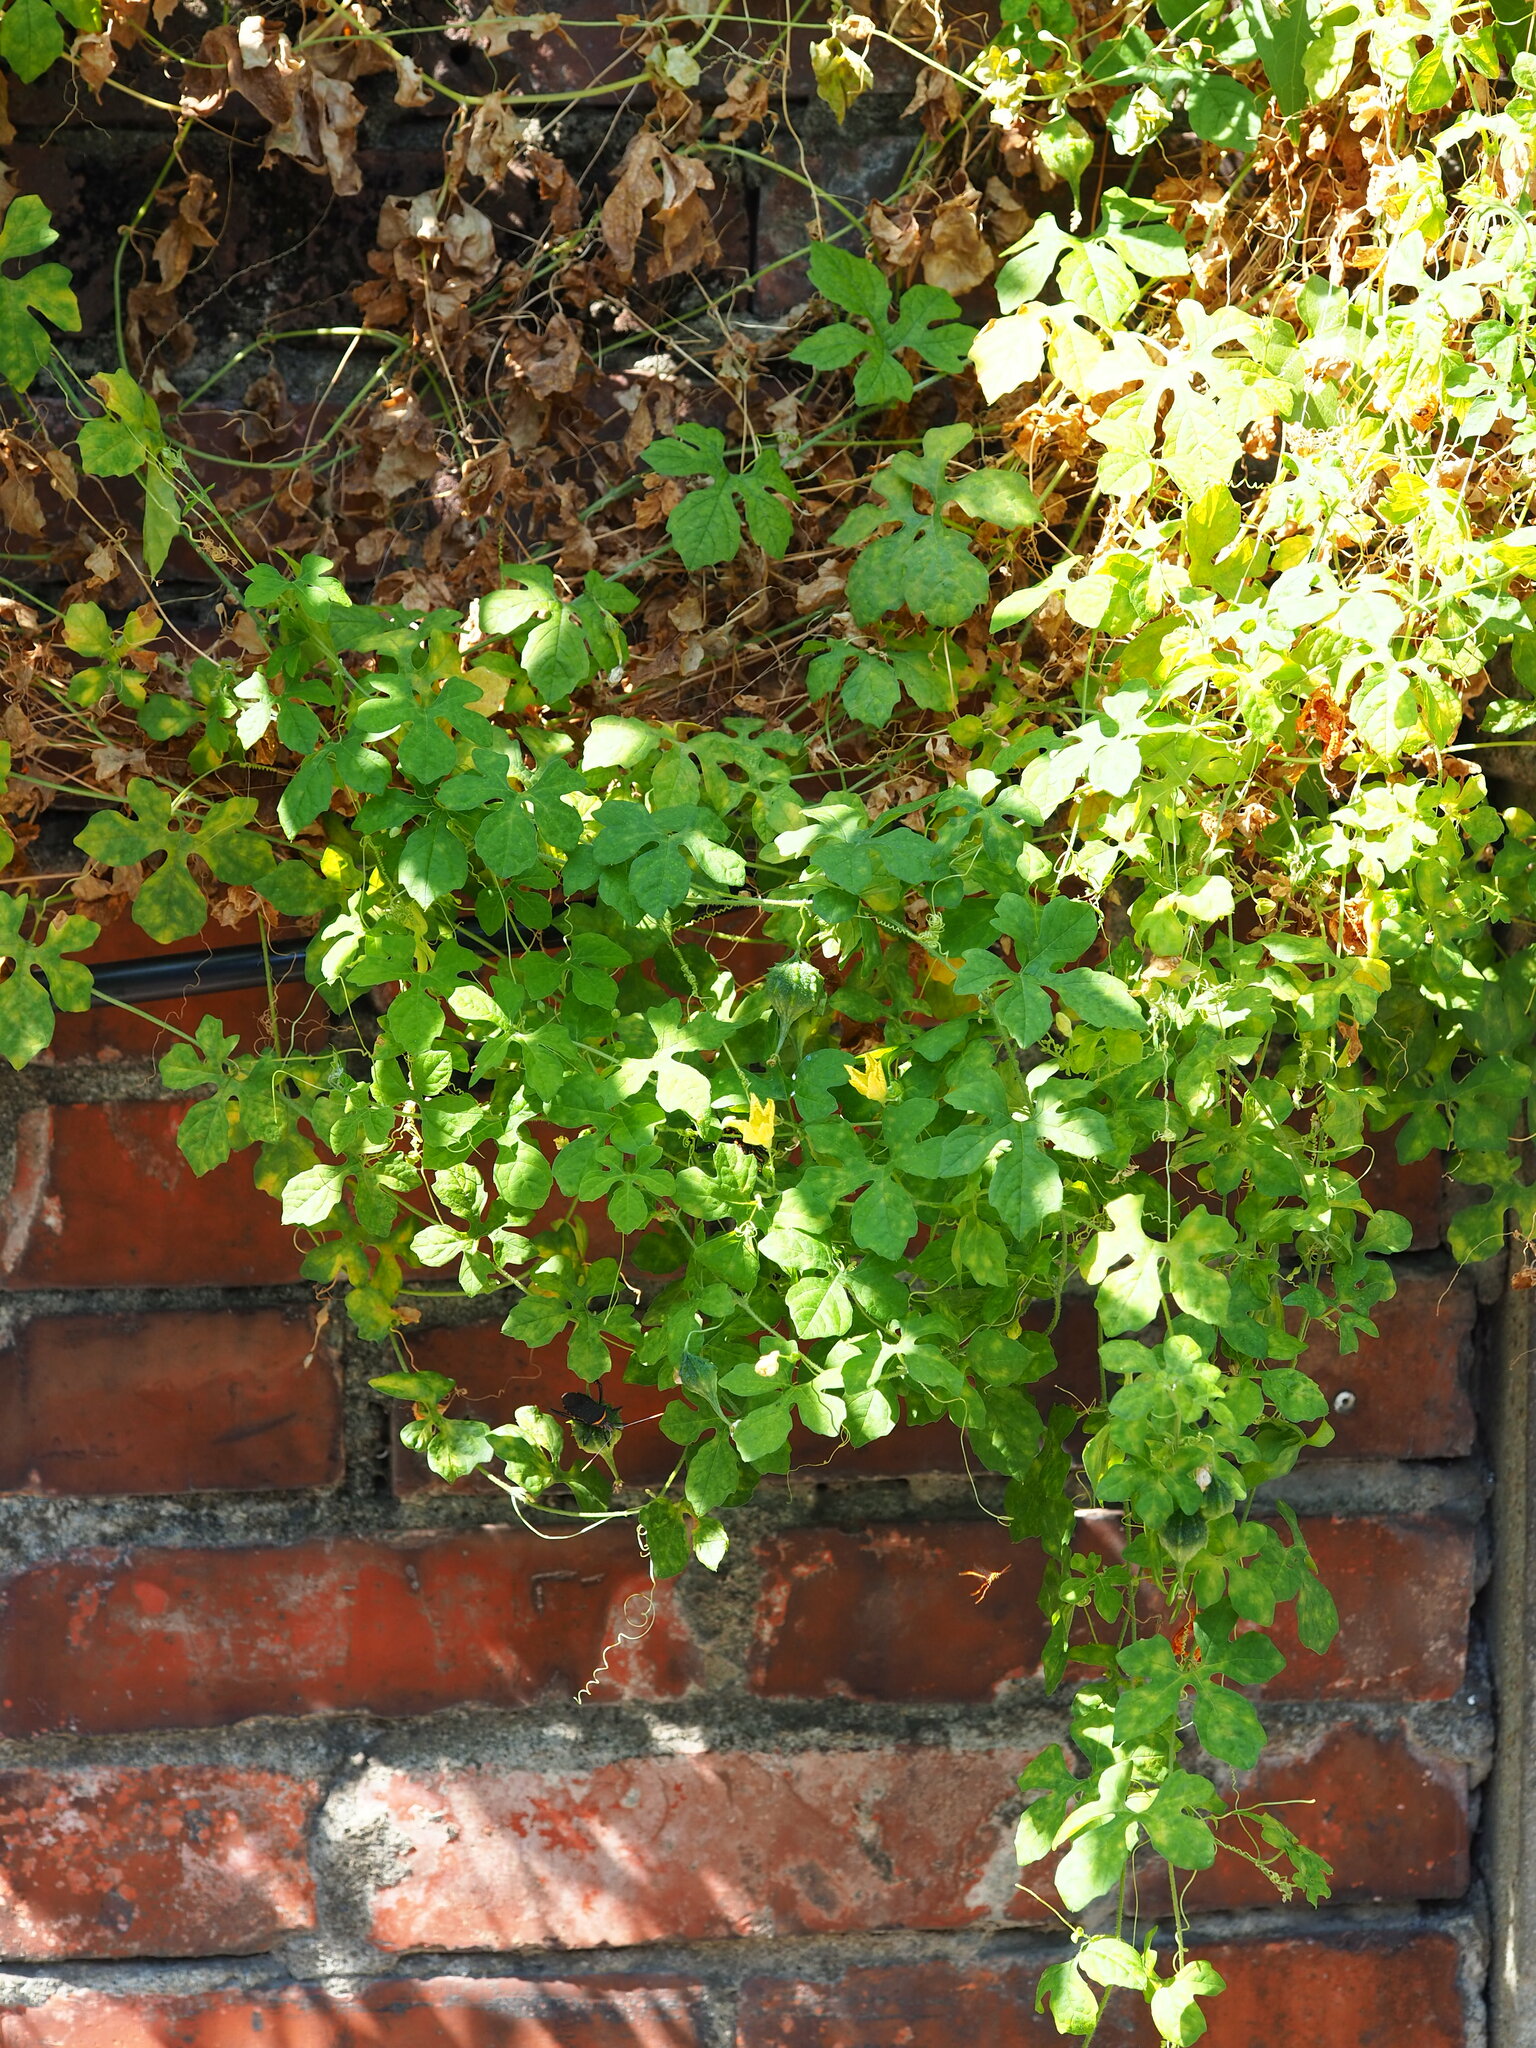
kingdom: Plantae
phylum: Tracheophyta
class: Magnoliopsida
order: Cucurbitales
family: Cucurbitaceae
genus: Momordica
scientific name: Momordica charantia
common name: Balsampear
